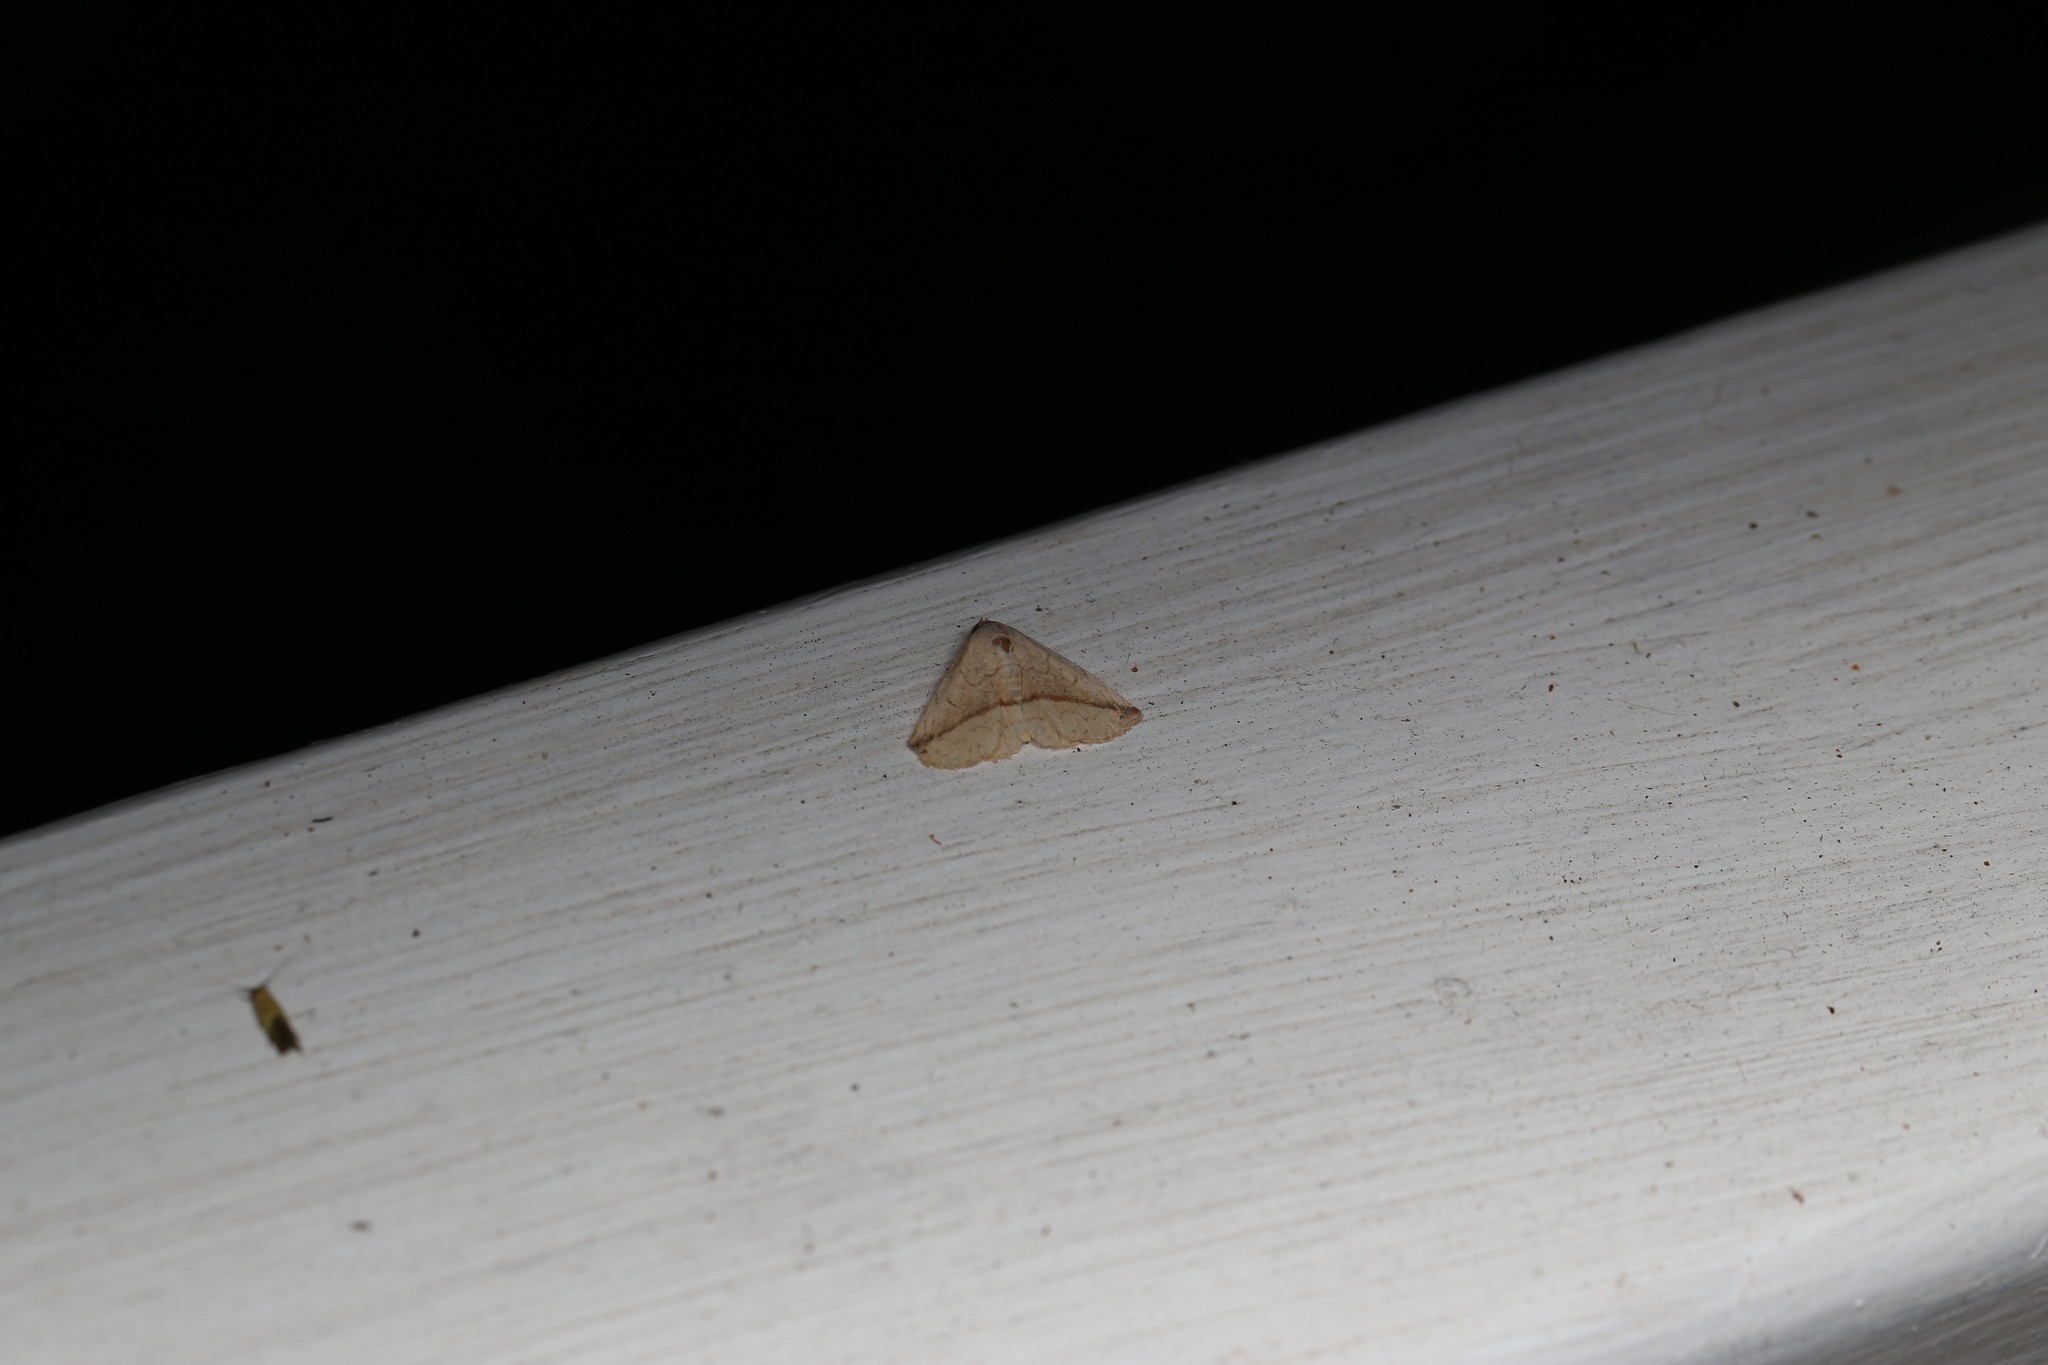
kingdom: Animalia
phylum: Arthropoda
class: Insecta
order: Lepidoptera
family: Noctuidae
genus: Eublemma
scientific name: Eublemma perversicolor
